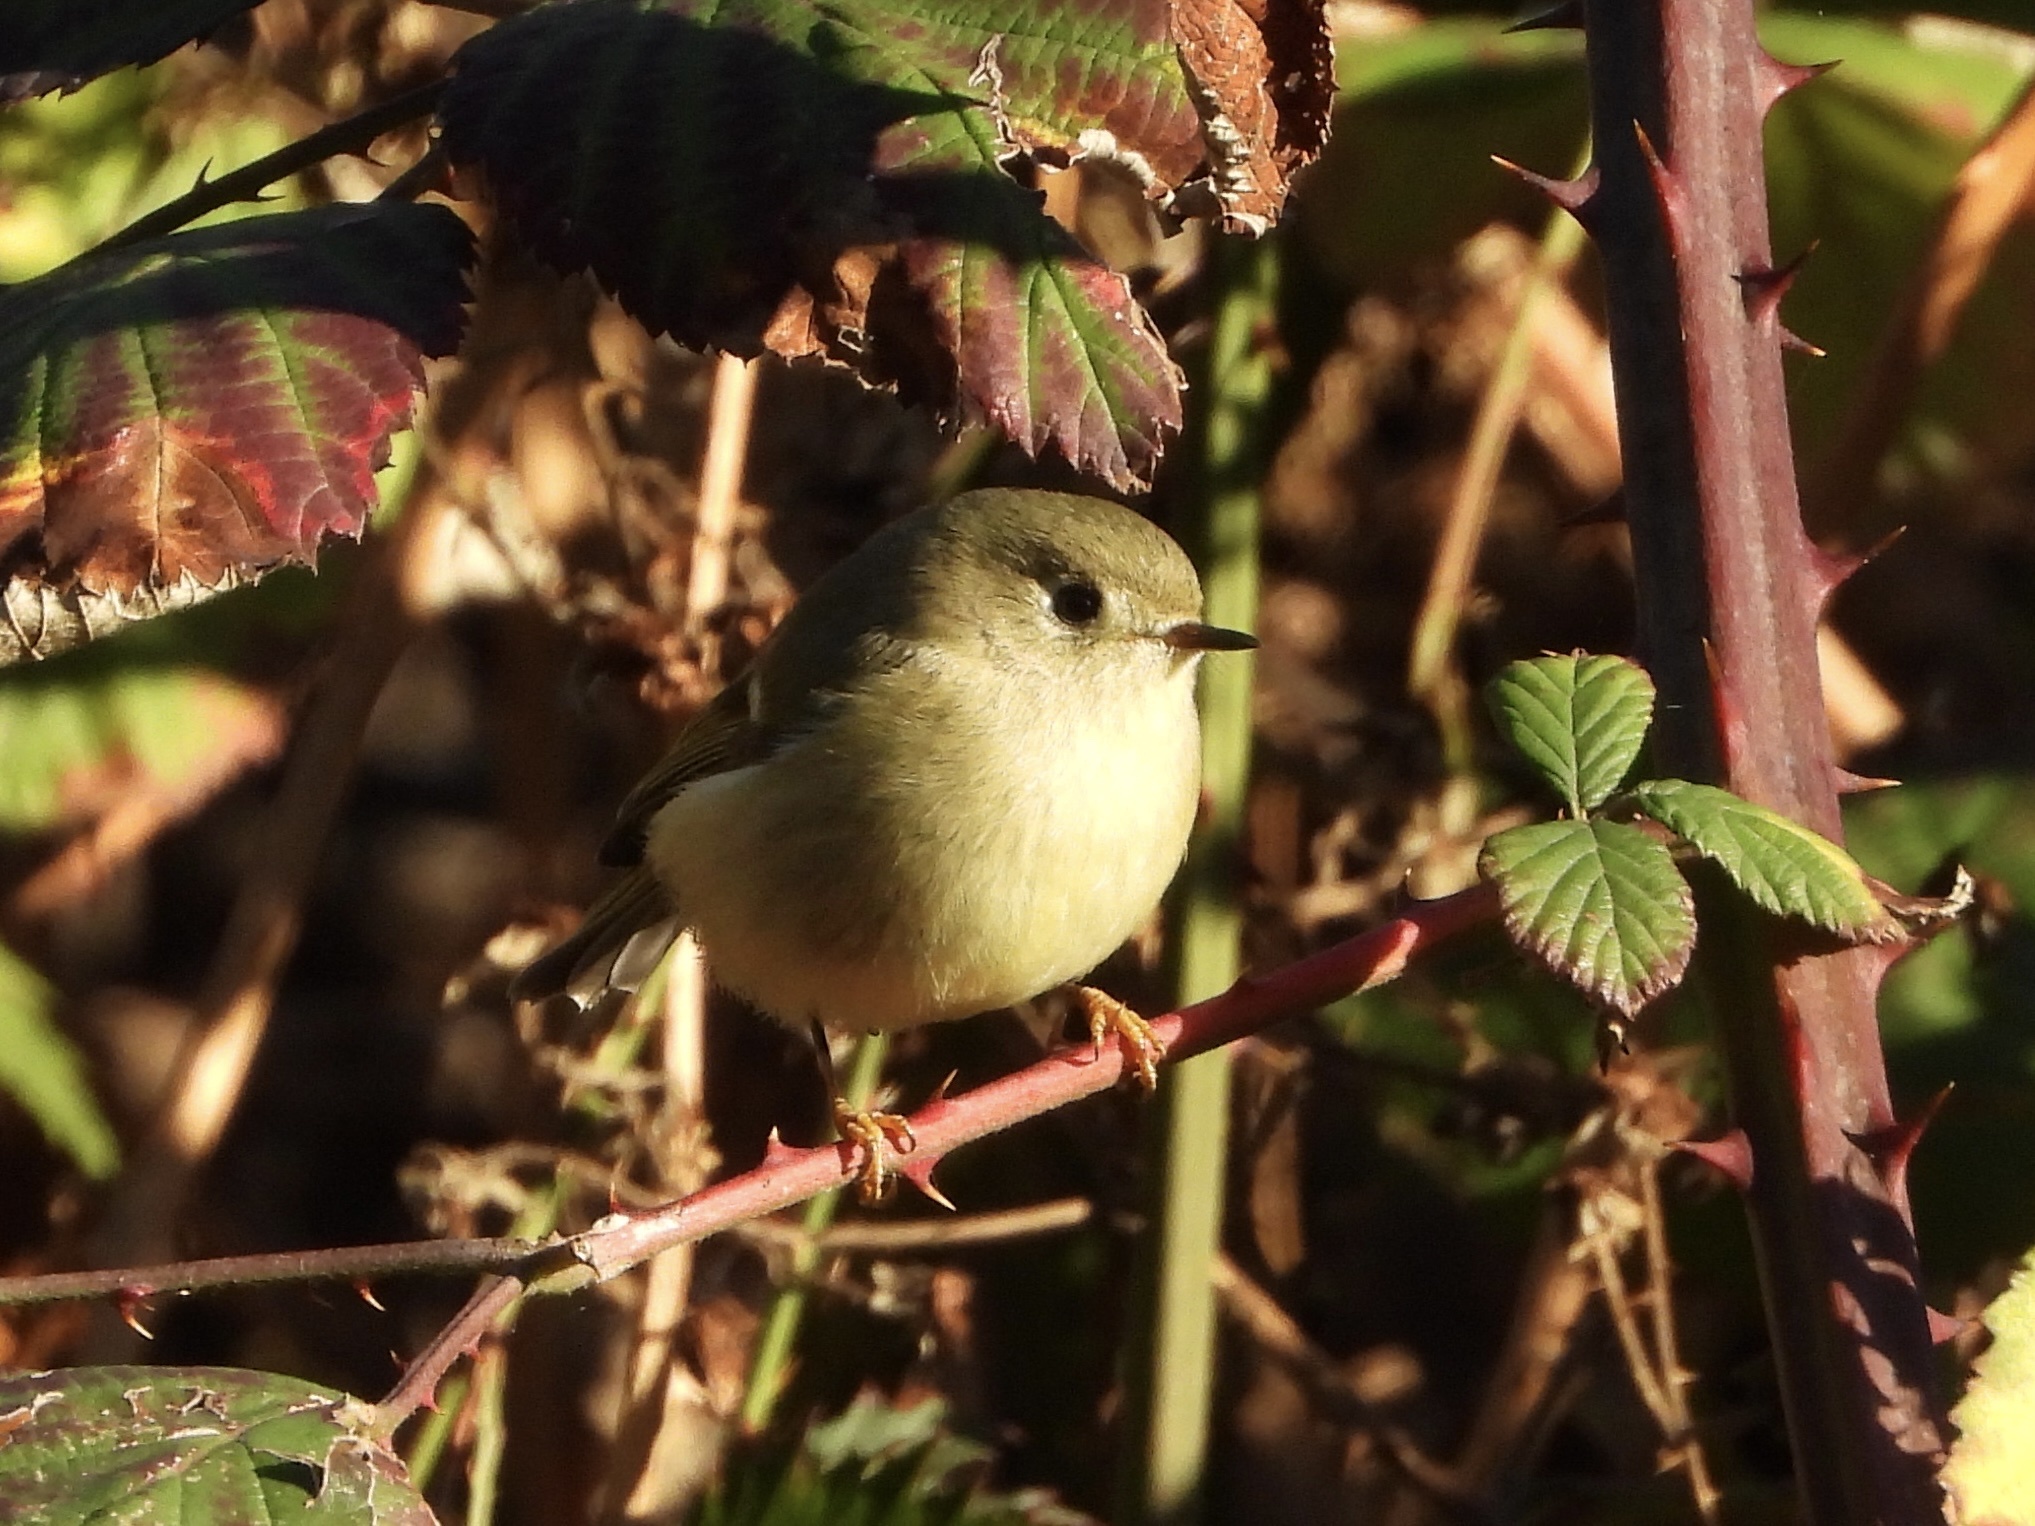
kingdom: Animalia
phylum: Chordata
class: Aves
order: Passeriformes
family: Regulidae
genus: Regulus
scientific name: Regulus calendula
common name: Ruby-crowned kinglet
